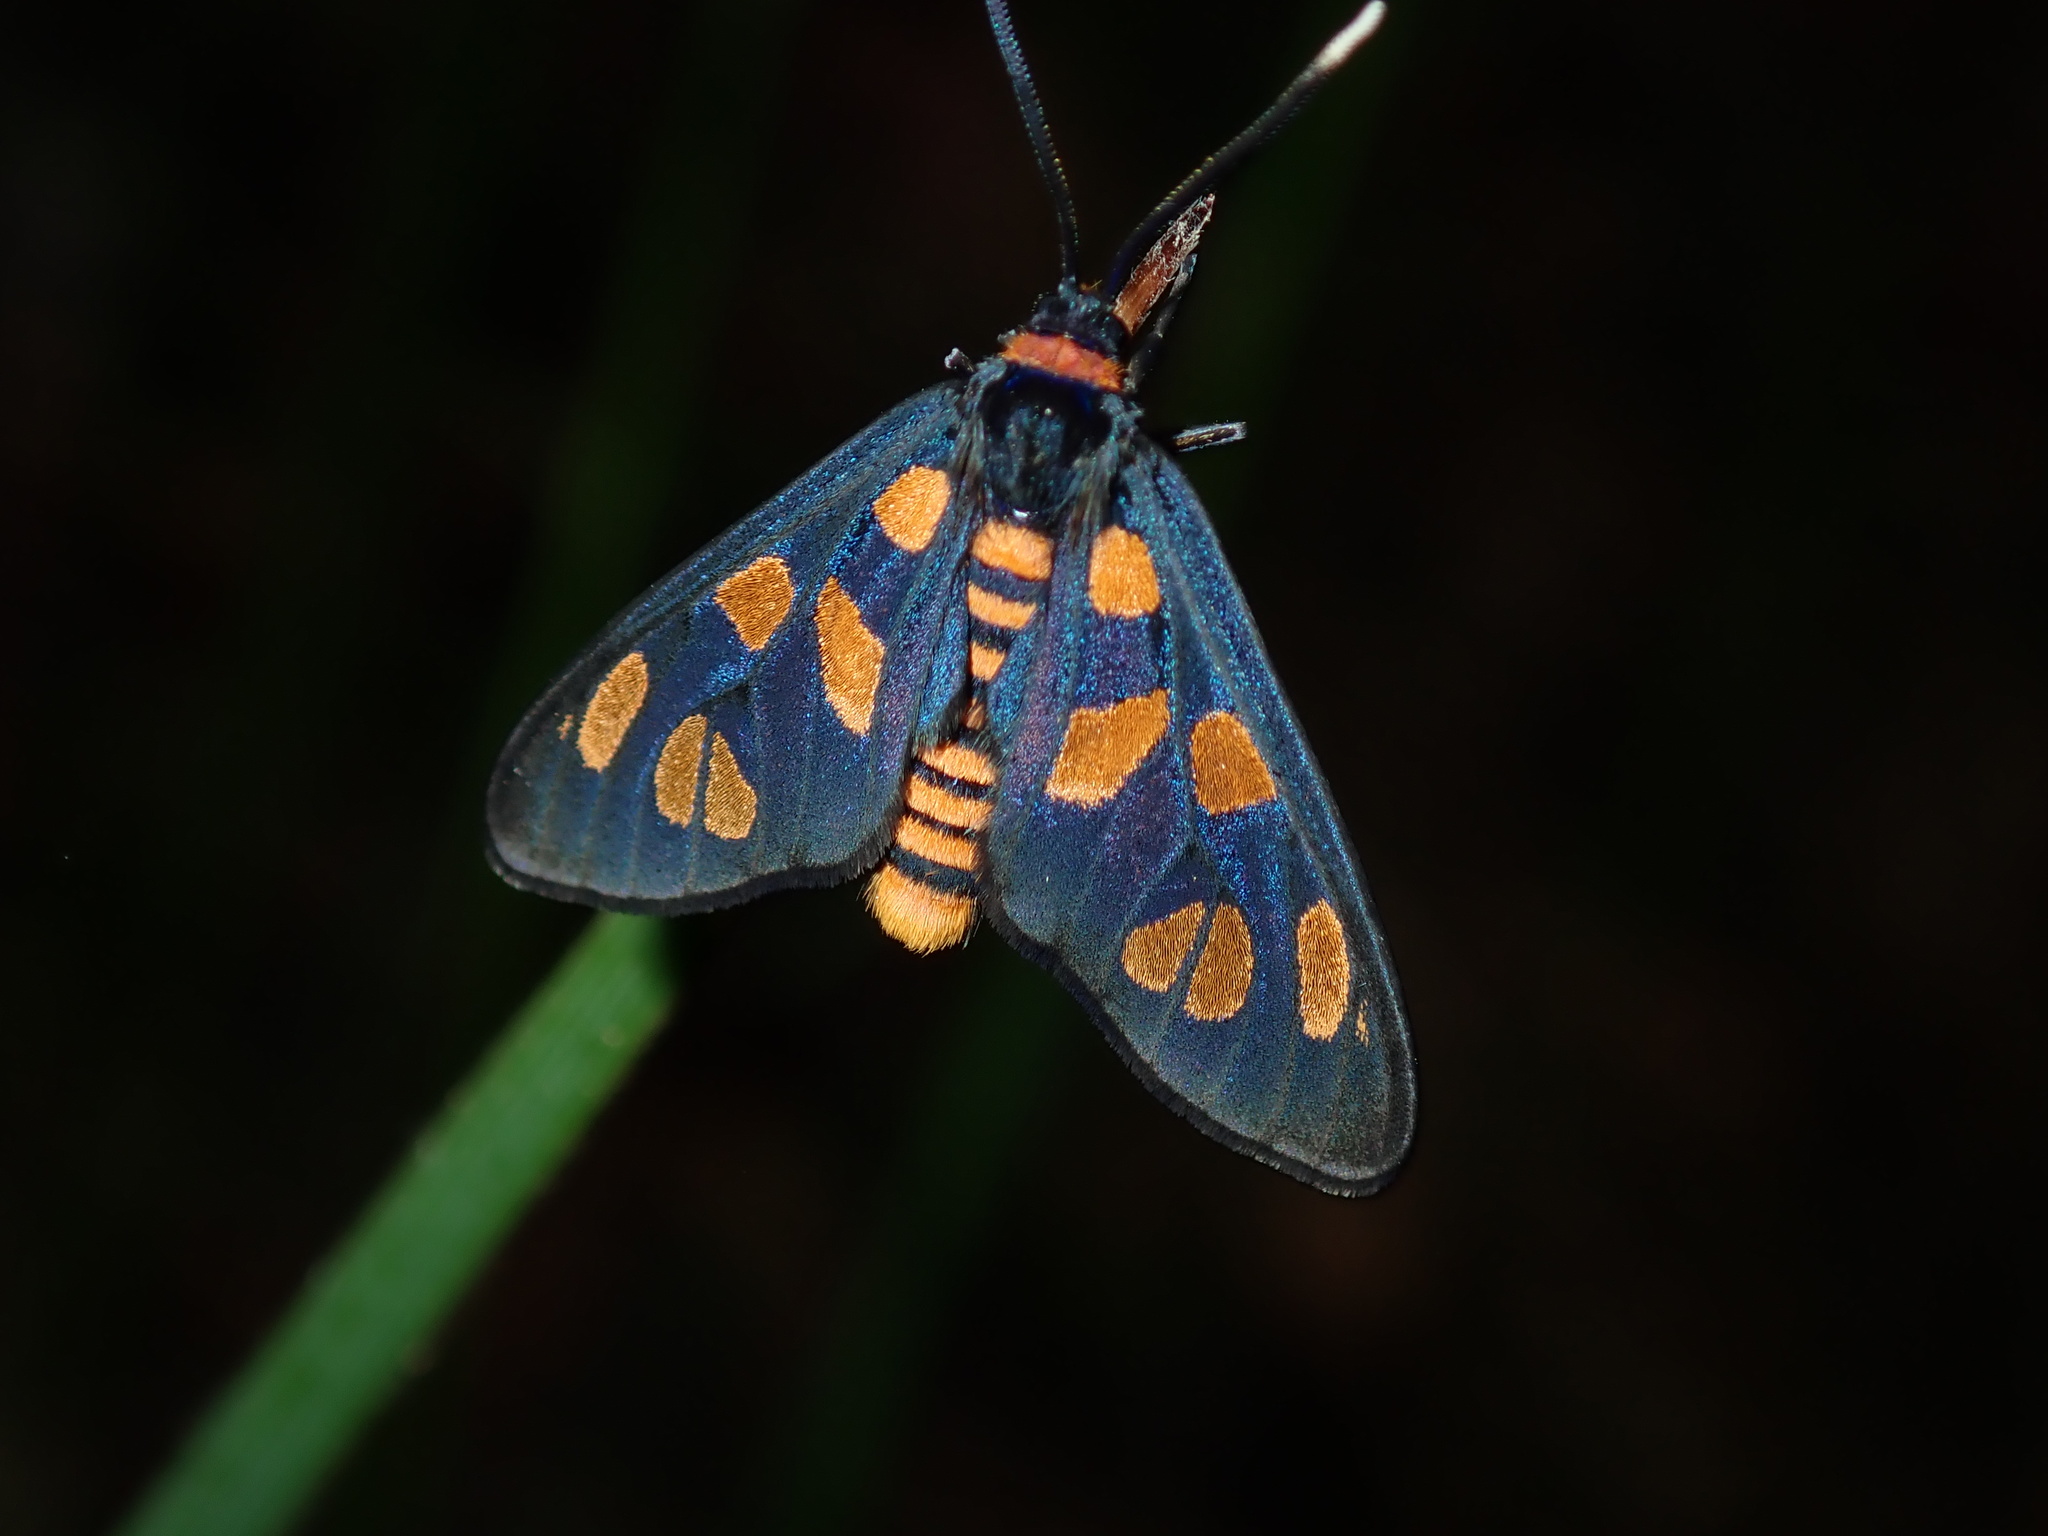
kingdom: Animalia
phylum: Arthropoda
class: Insecta
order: Lepidoptera
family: Erebidae
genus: Amata
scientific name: Amata nigriceps
